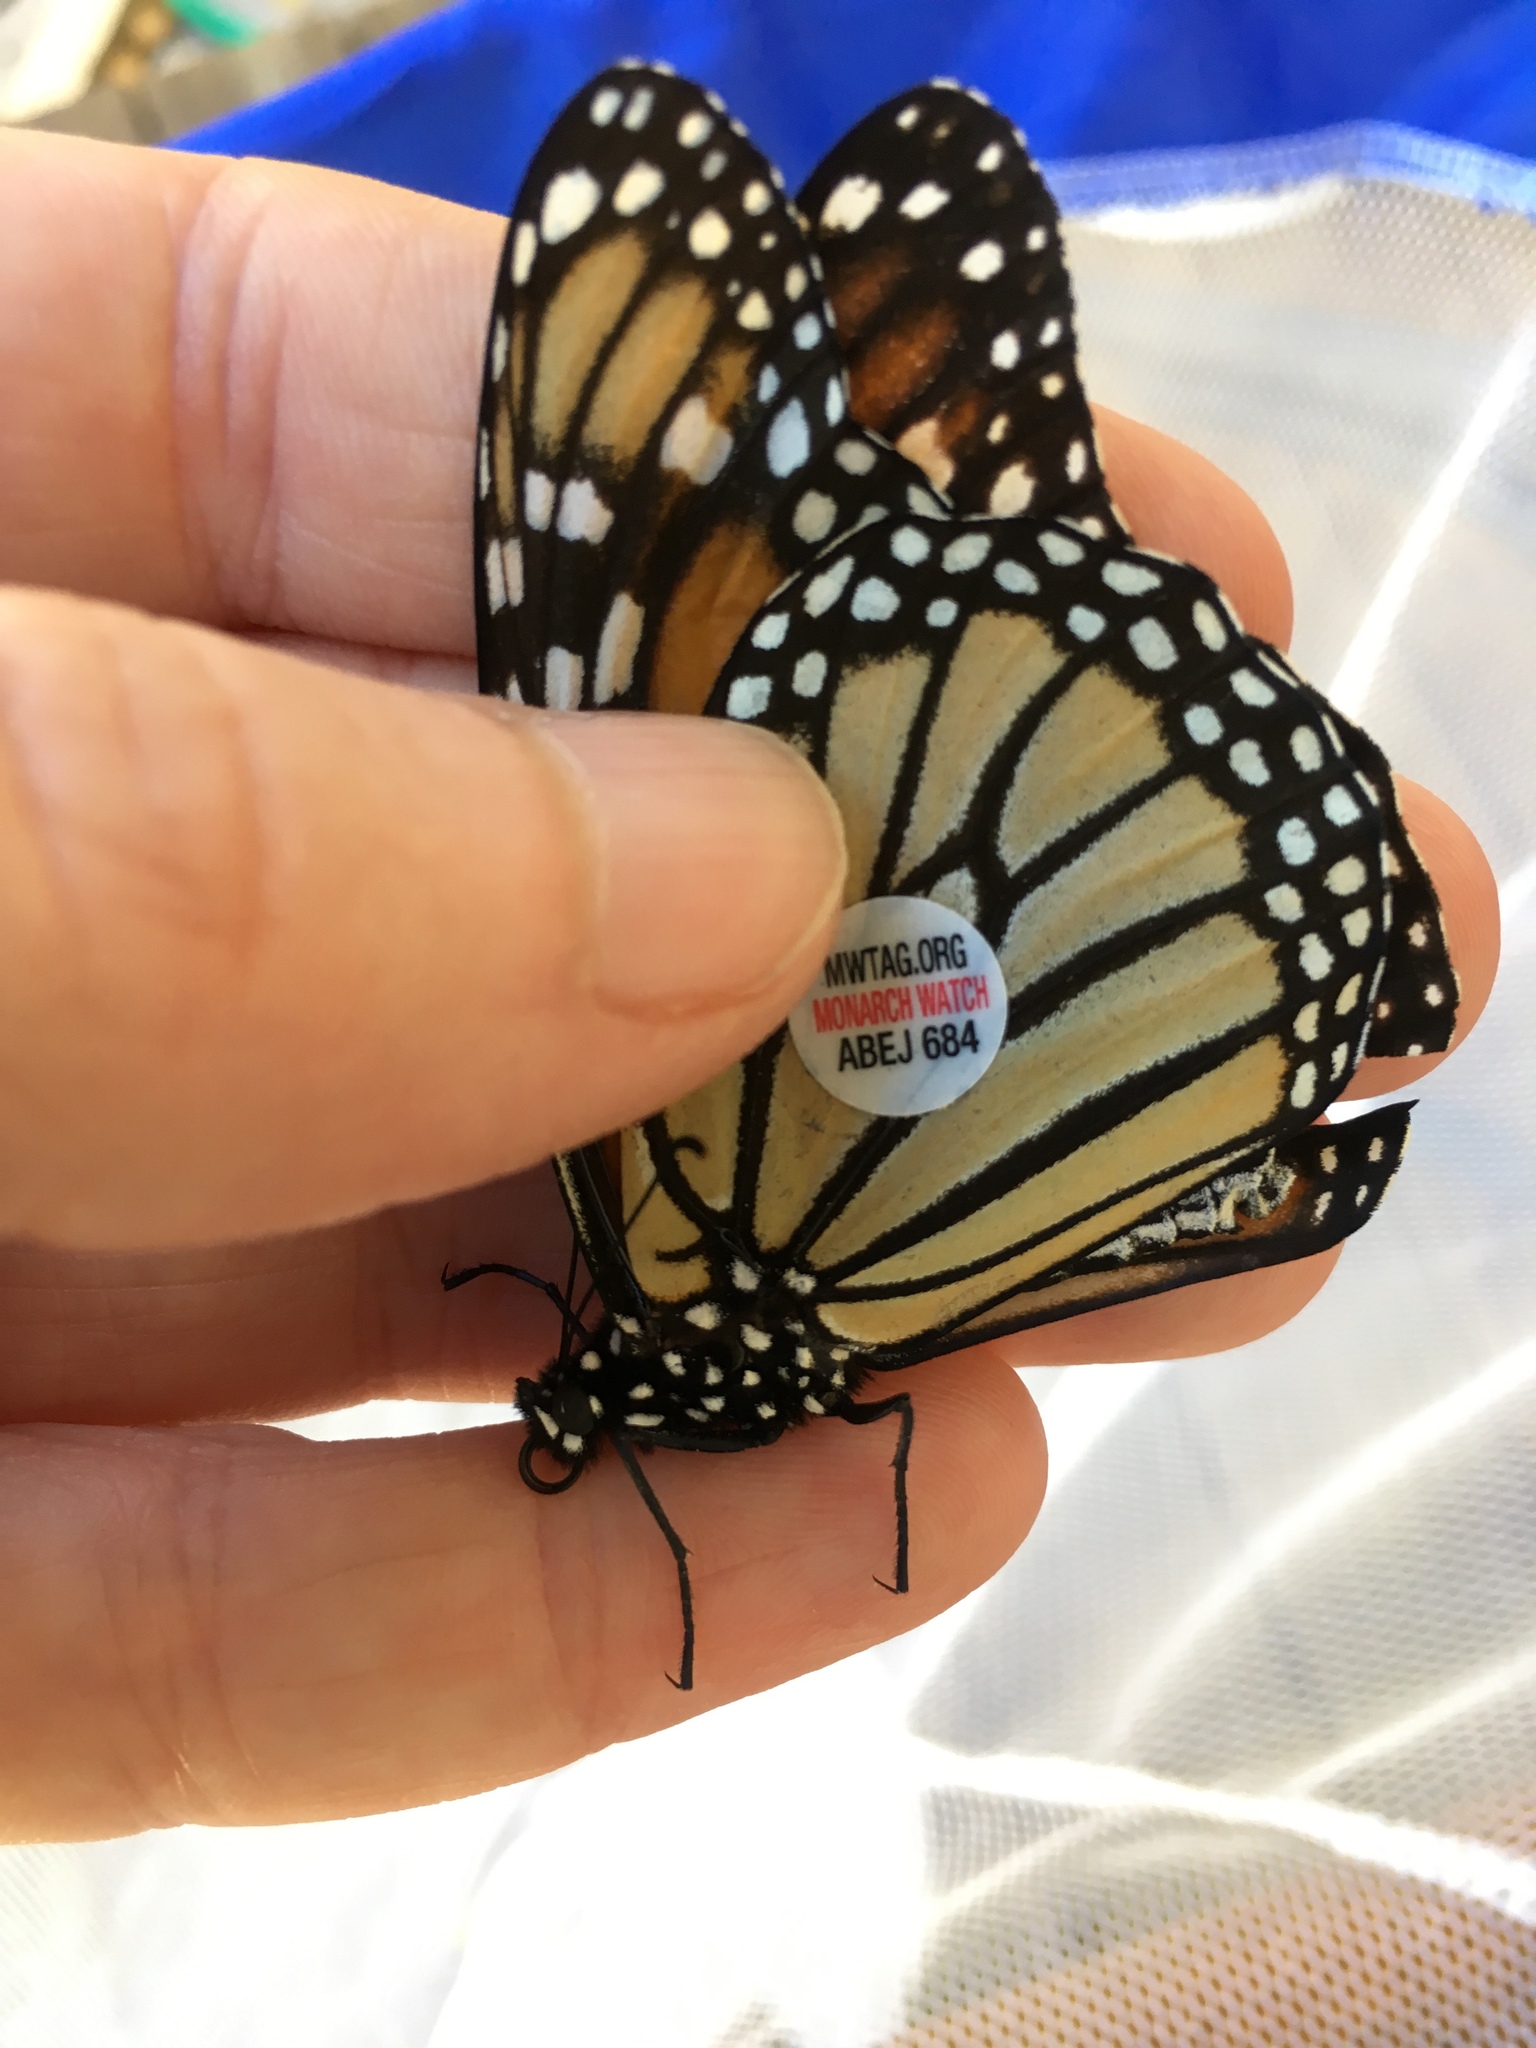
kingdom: Animalia
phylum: Arthropoda
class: Insecta
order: Lepidoptera
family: Nymphalidae
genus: Danaus
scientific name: Danaus plexippus
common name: Monarch
